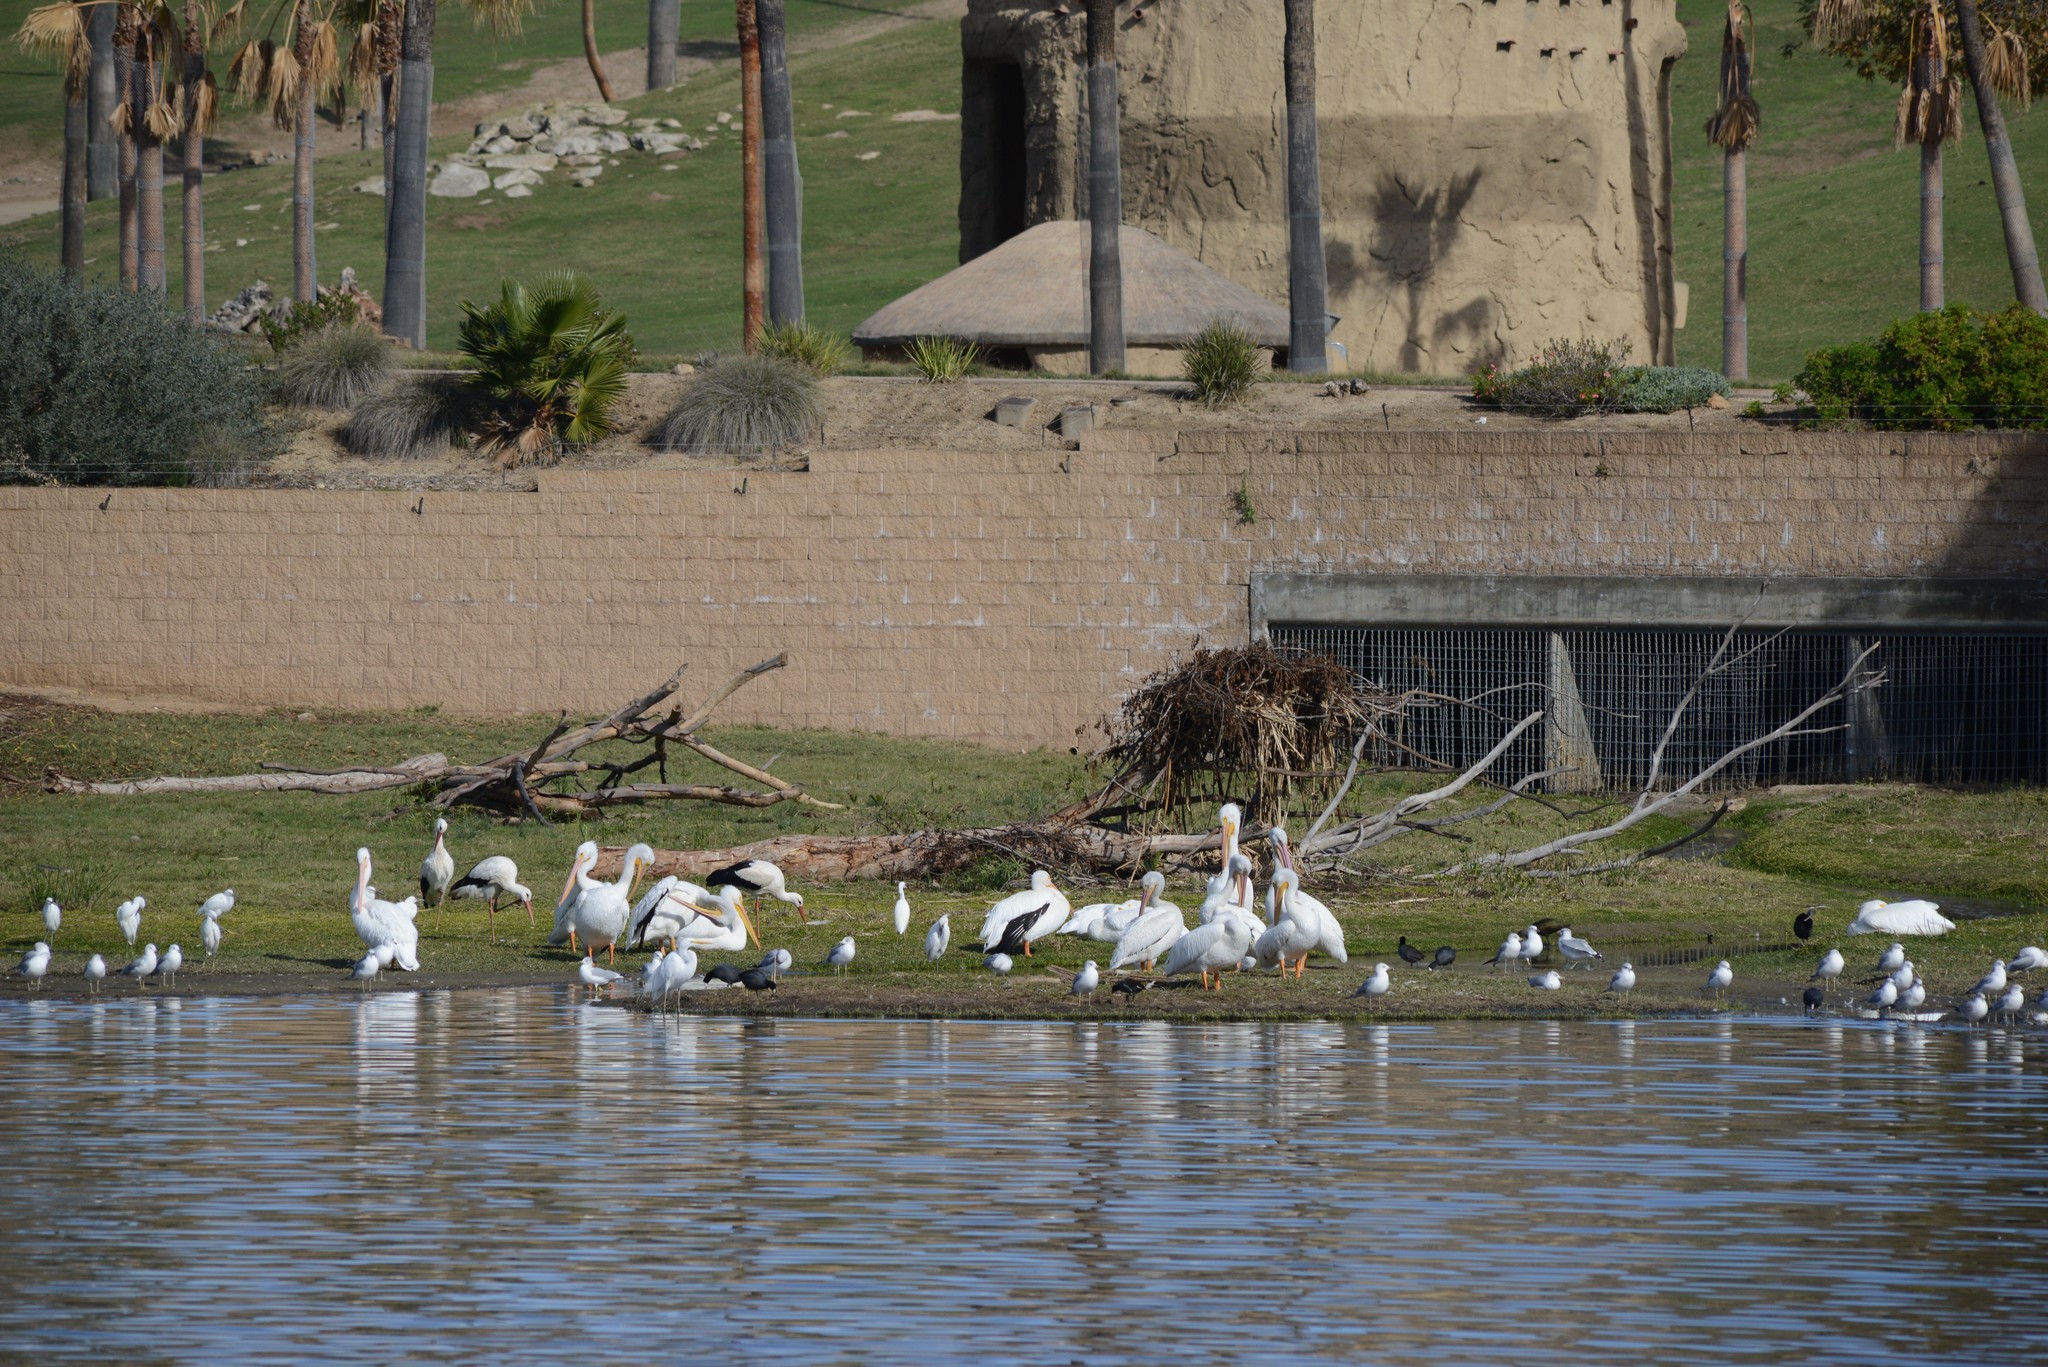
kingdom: Animalia
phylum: Chordata
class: Aves
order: Pelecaniformes
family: Pelecanidae
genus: Pelecanus
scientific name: Pelecanus erythrorhynchos
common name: American white pelican
